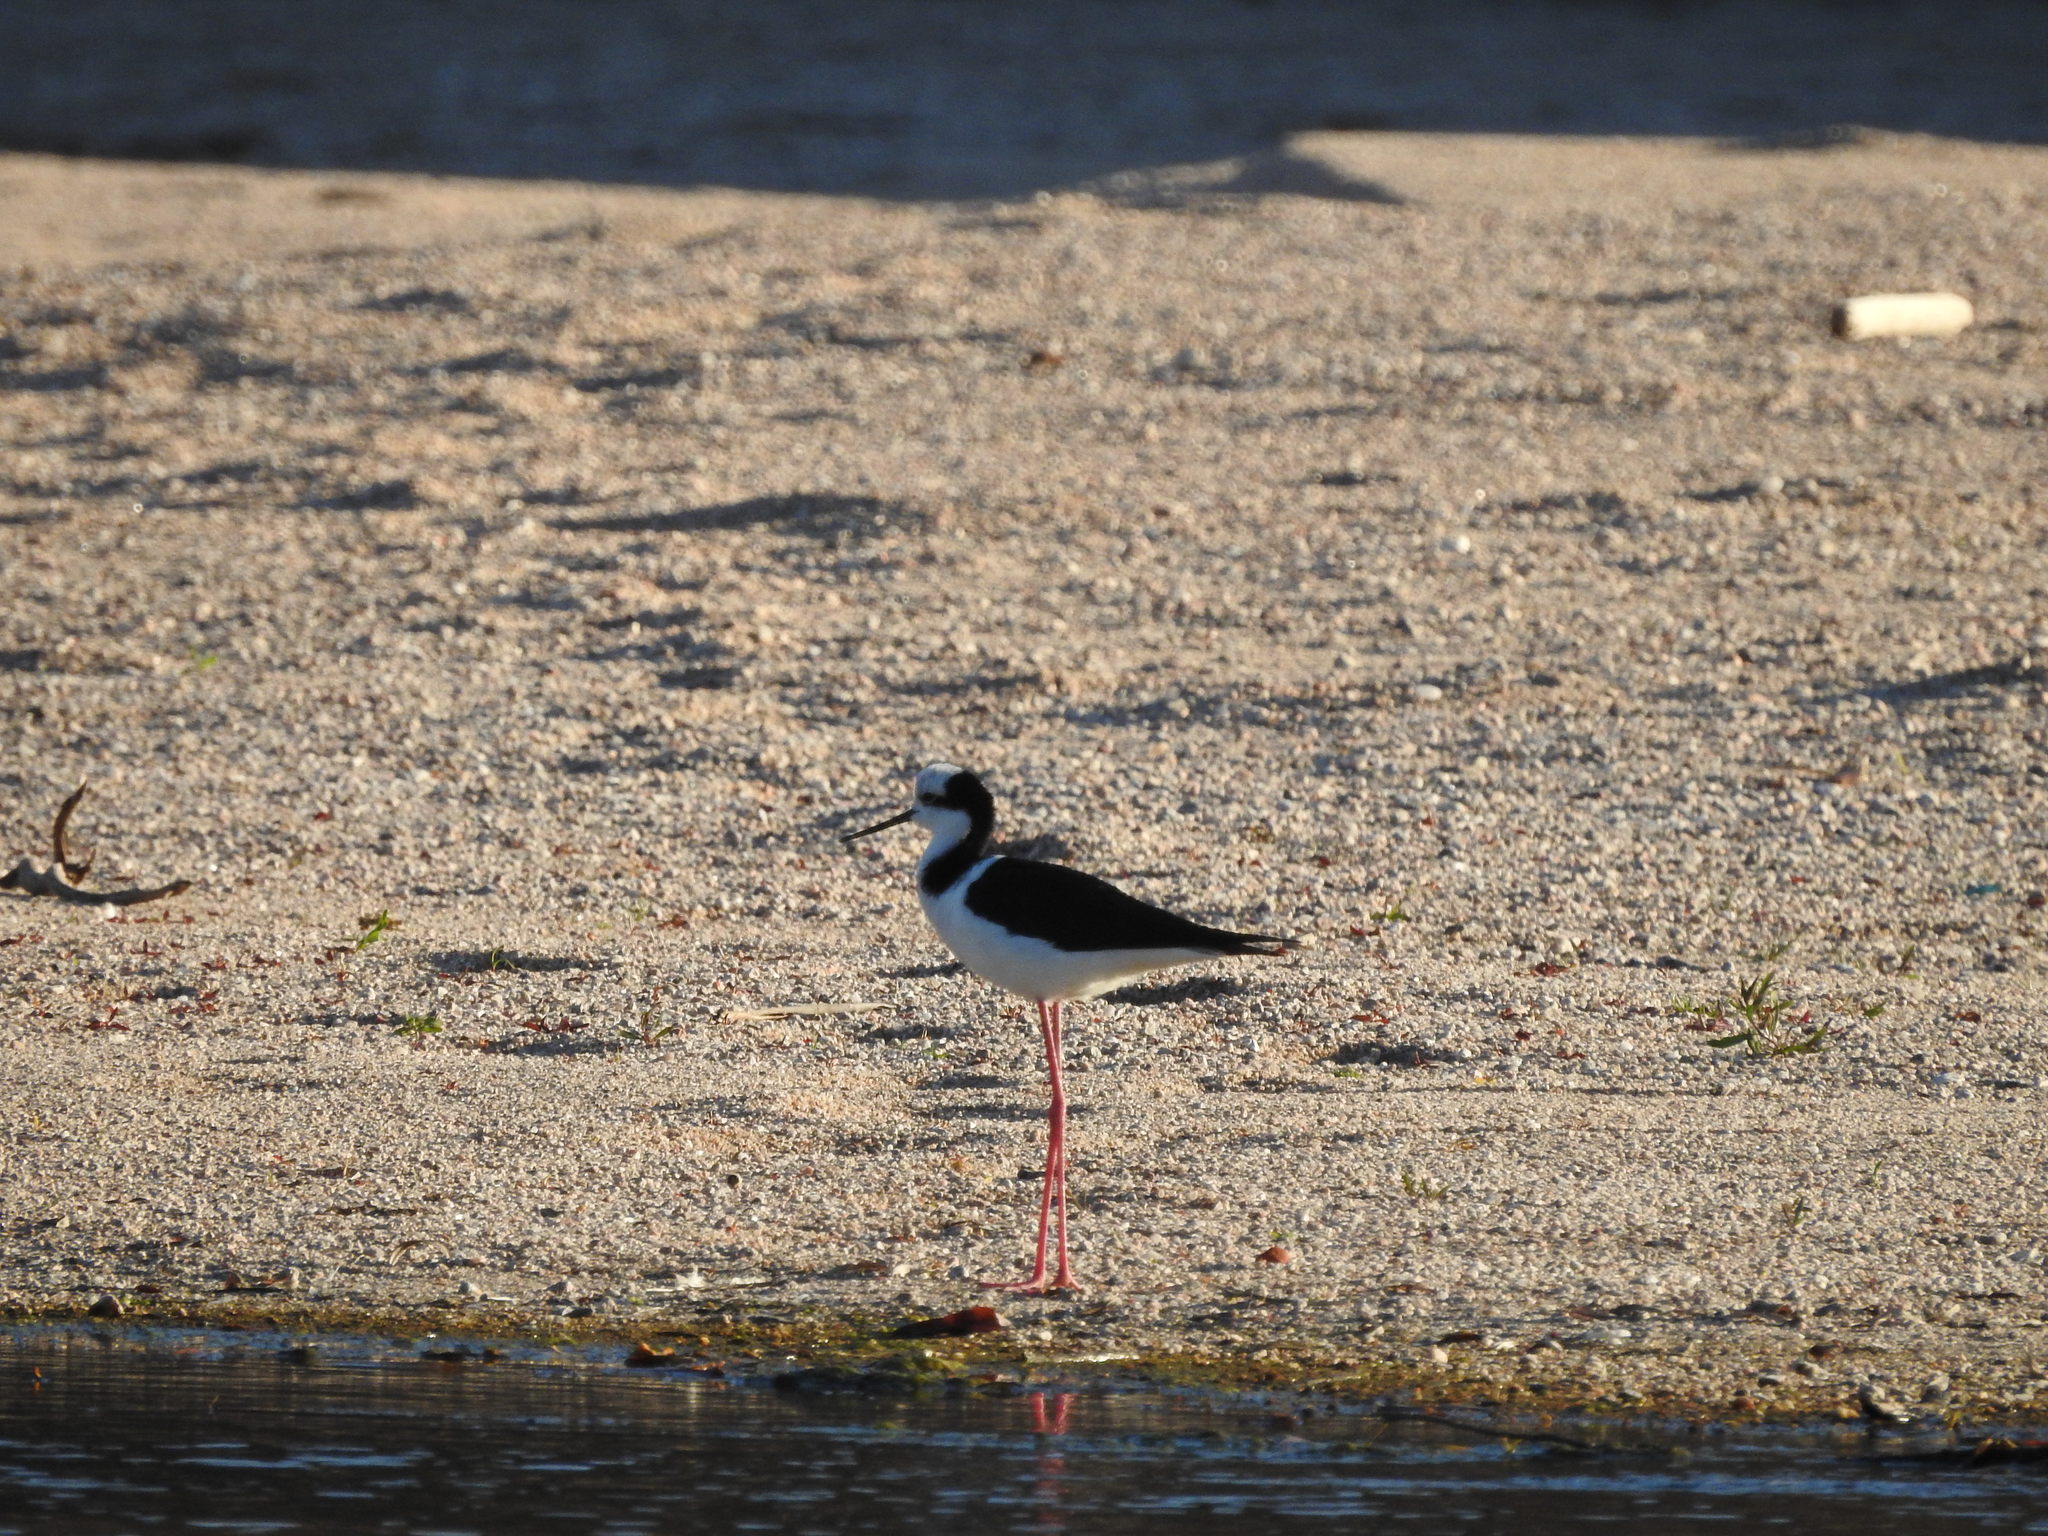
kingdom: Animalia
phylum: Chordata
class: Aves
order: Charadriiformes
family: Recurvirostridae
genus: Himantopus
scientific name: Himantopus mexicanus
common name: Black-necked stilt
